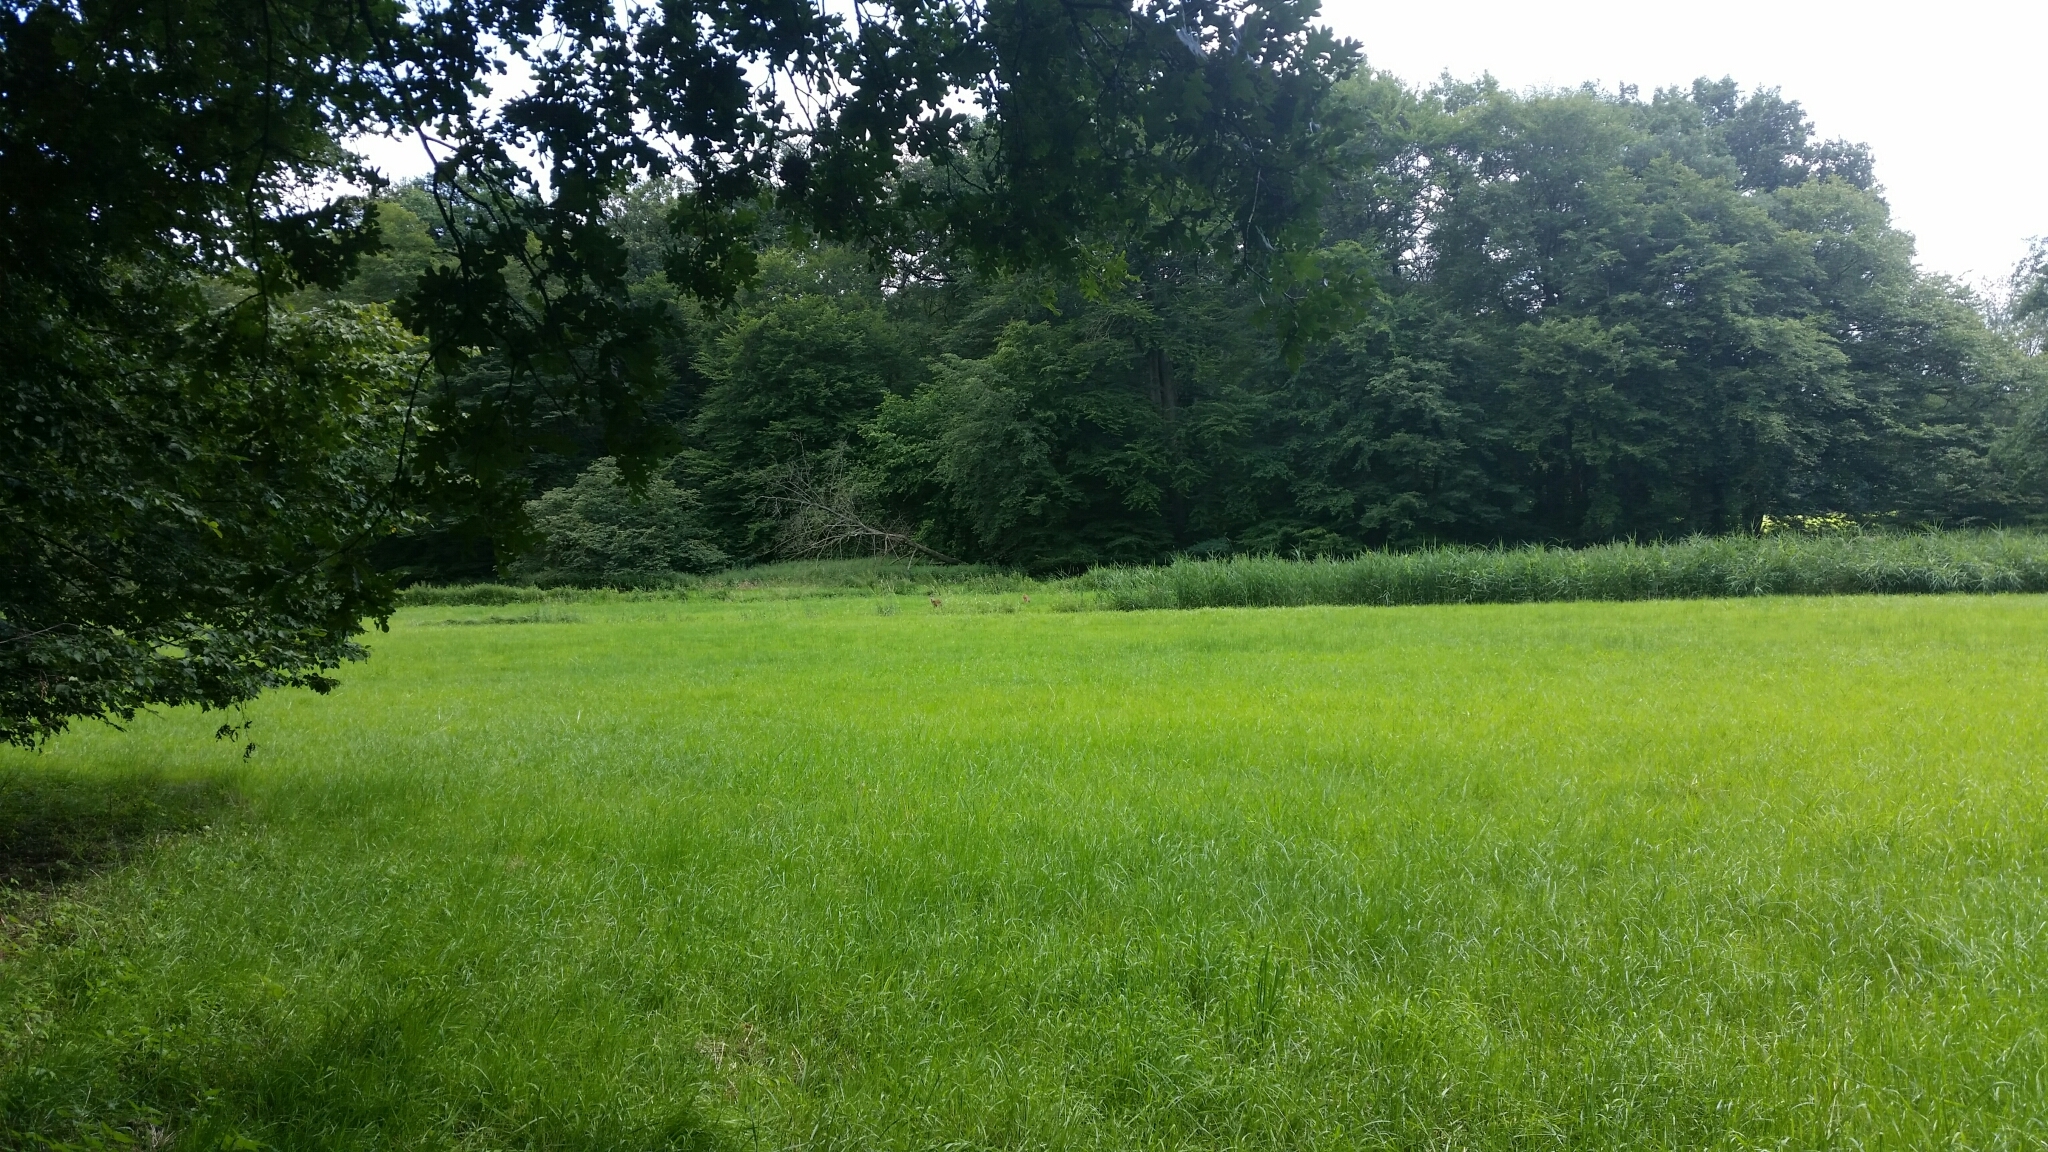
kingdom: Animalia
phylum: Chordata
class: Mammalia
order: Artiodactyla
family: Cervidae
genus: Capreolus
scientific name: Capreolus capreolus
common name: Western roe deer
